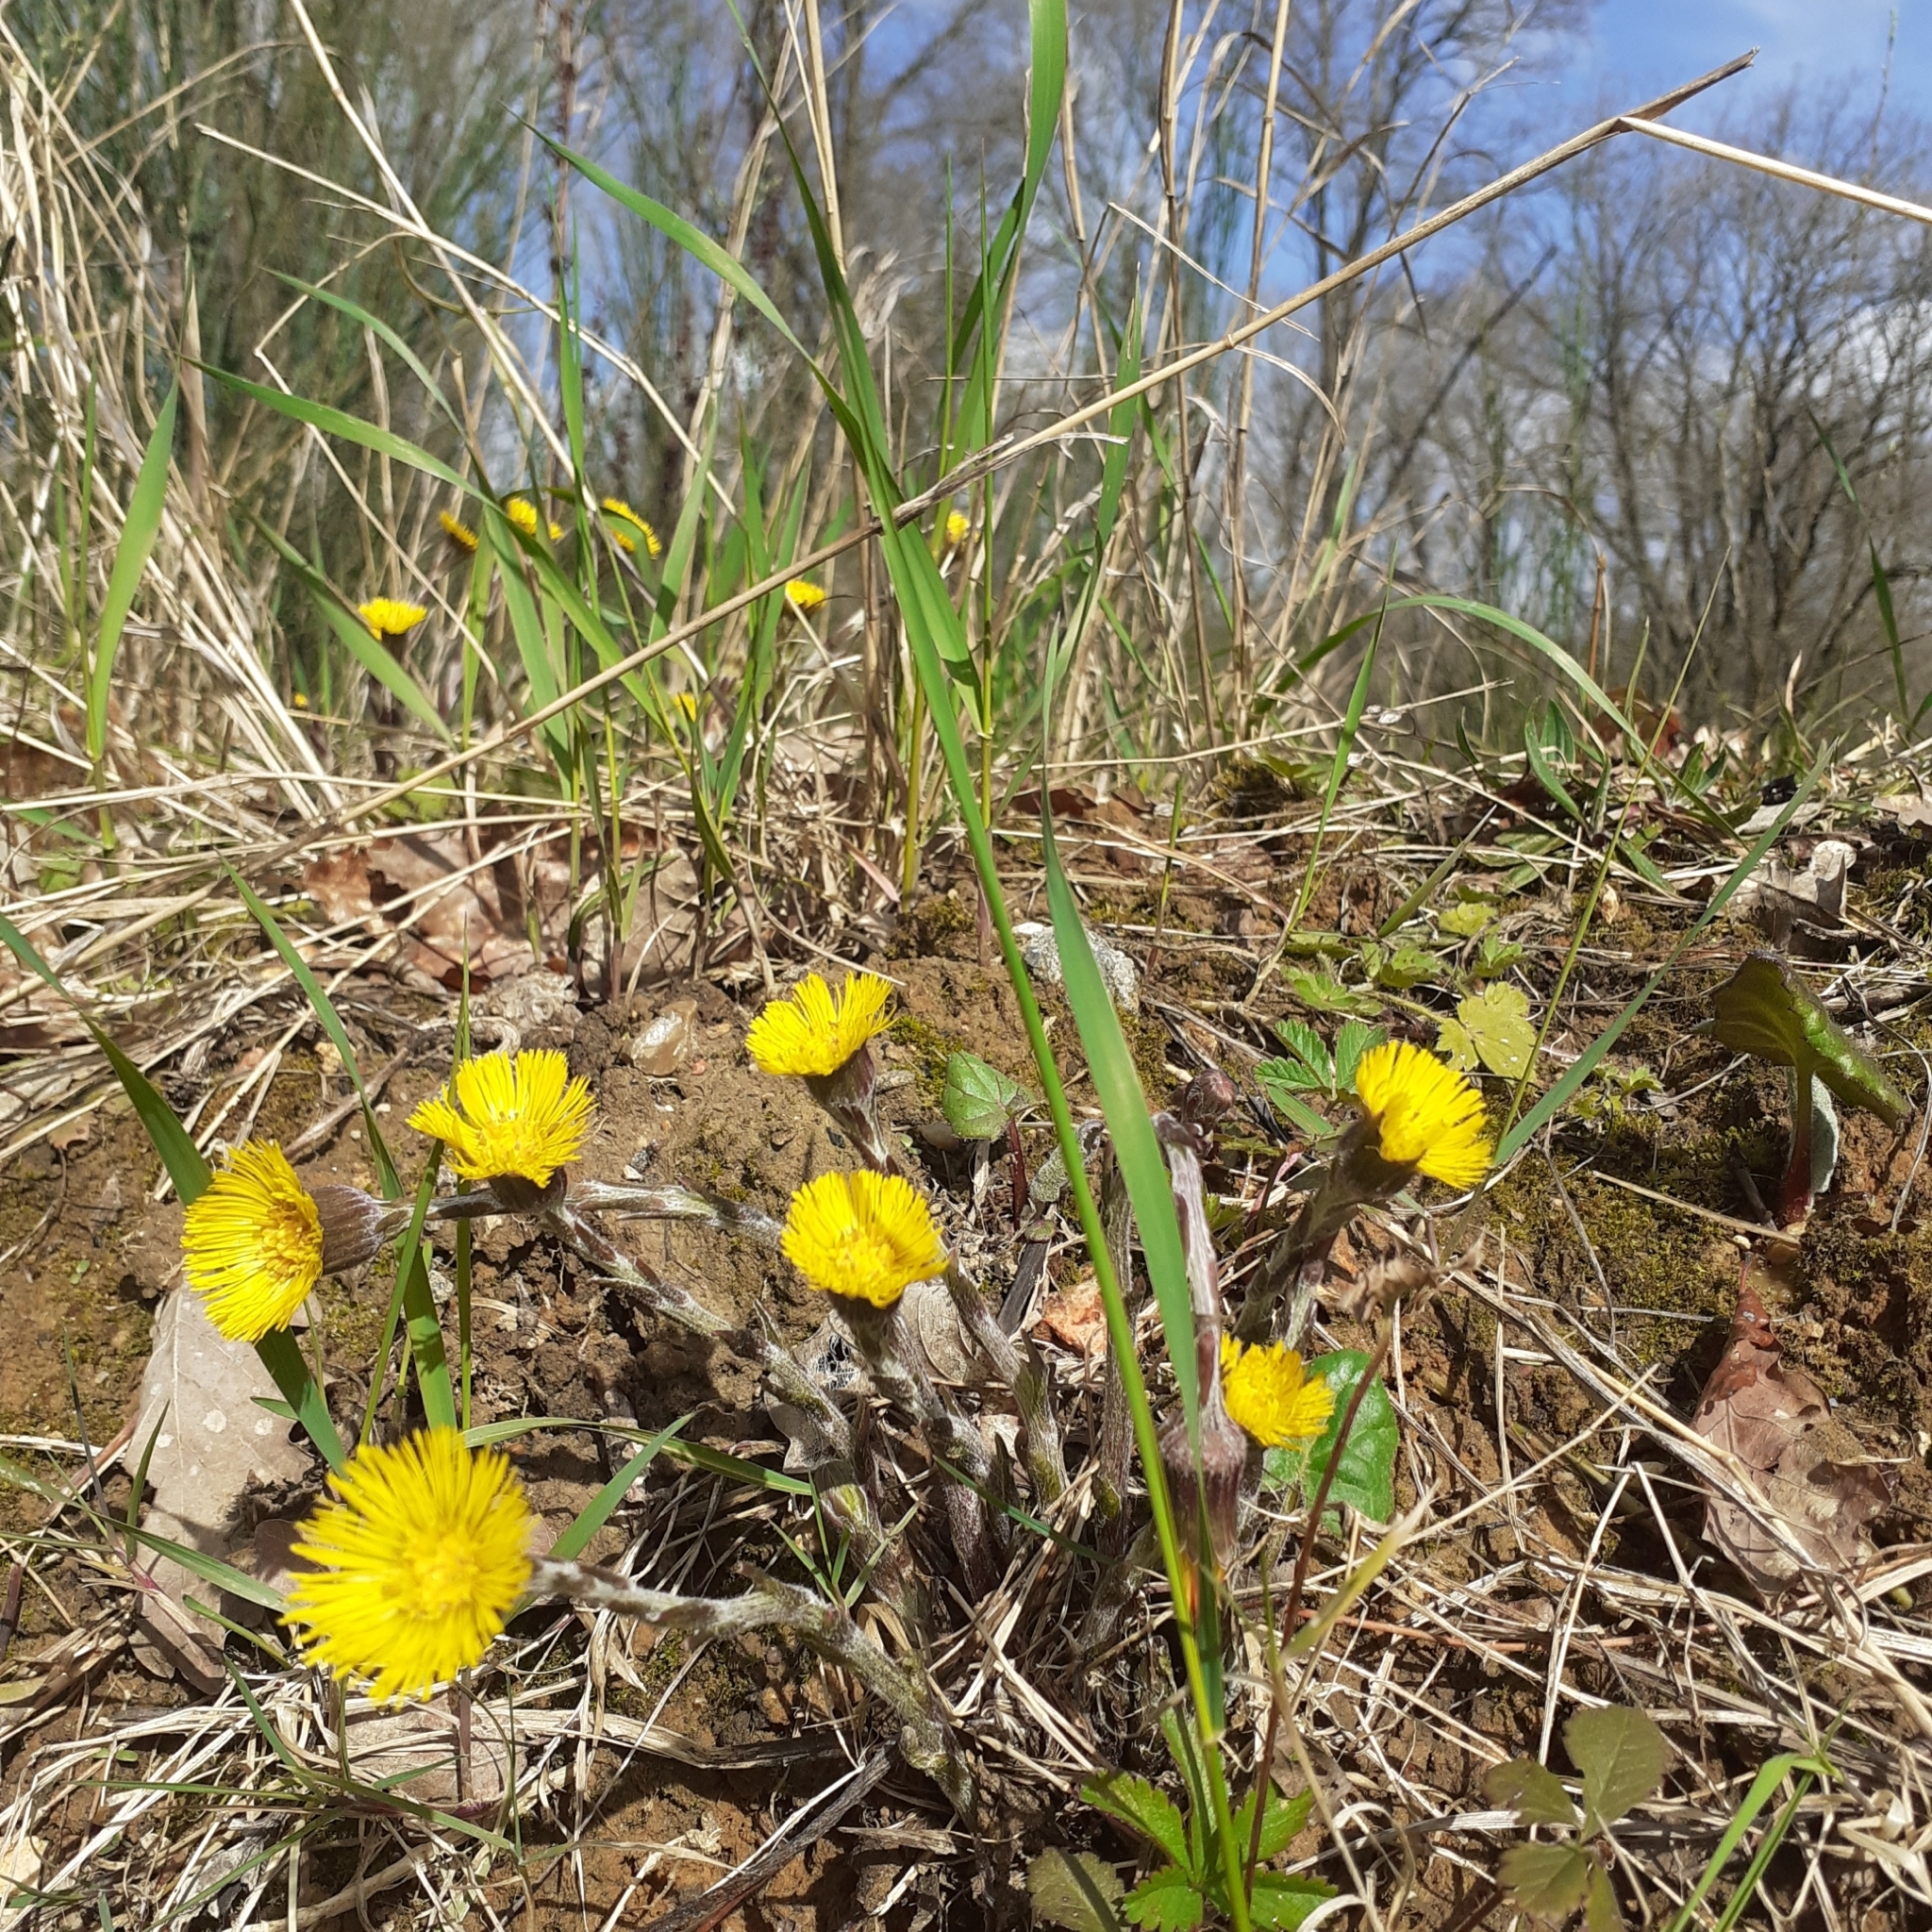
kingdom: Plantae
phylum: Tracheophyta
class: Magnoliopsida
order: Asterales
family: Asteraceae
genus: Tussilago
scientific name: Tussilago farfara
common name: Coltsfoot
